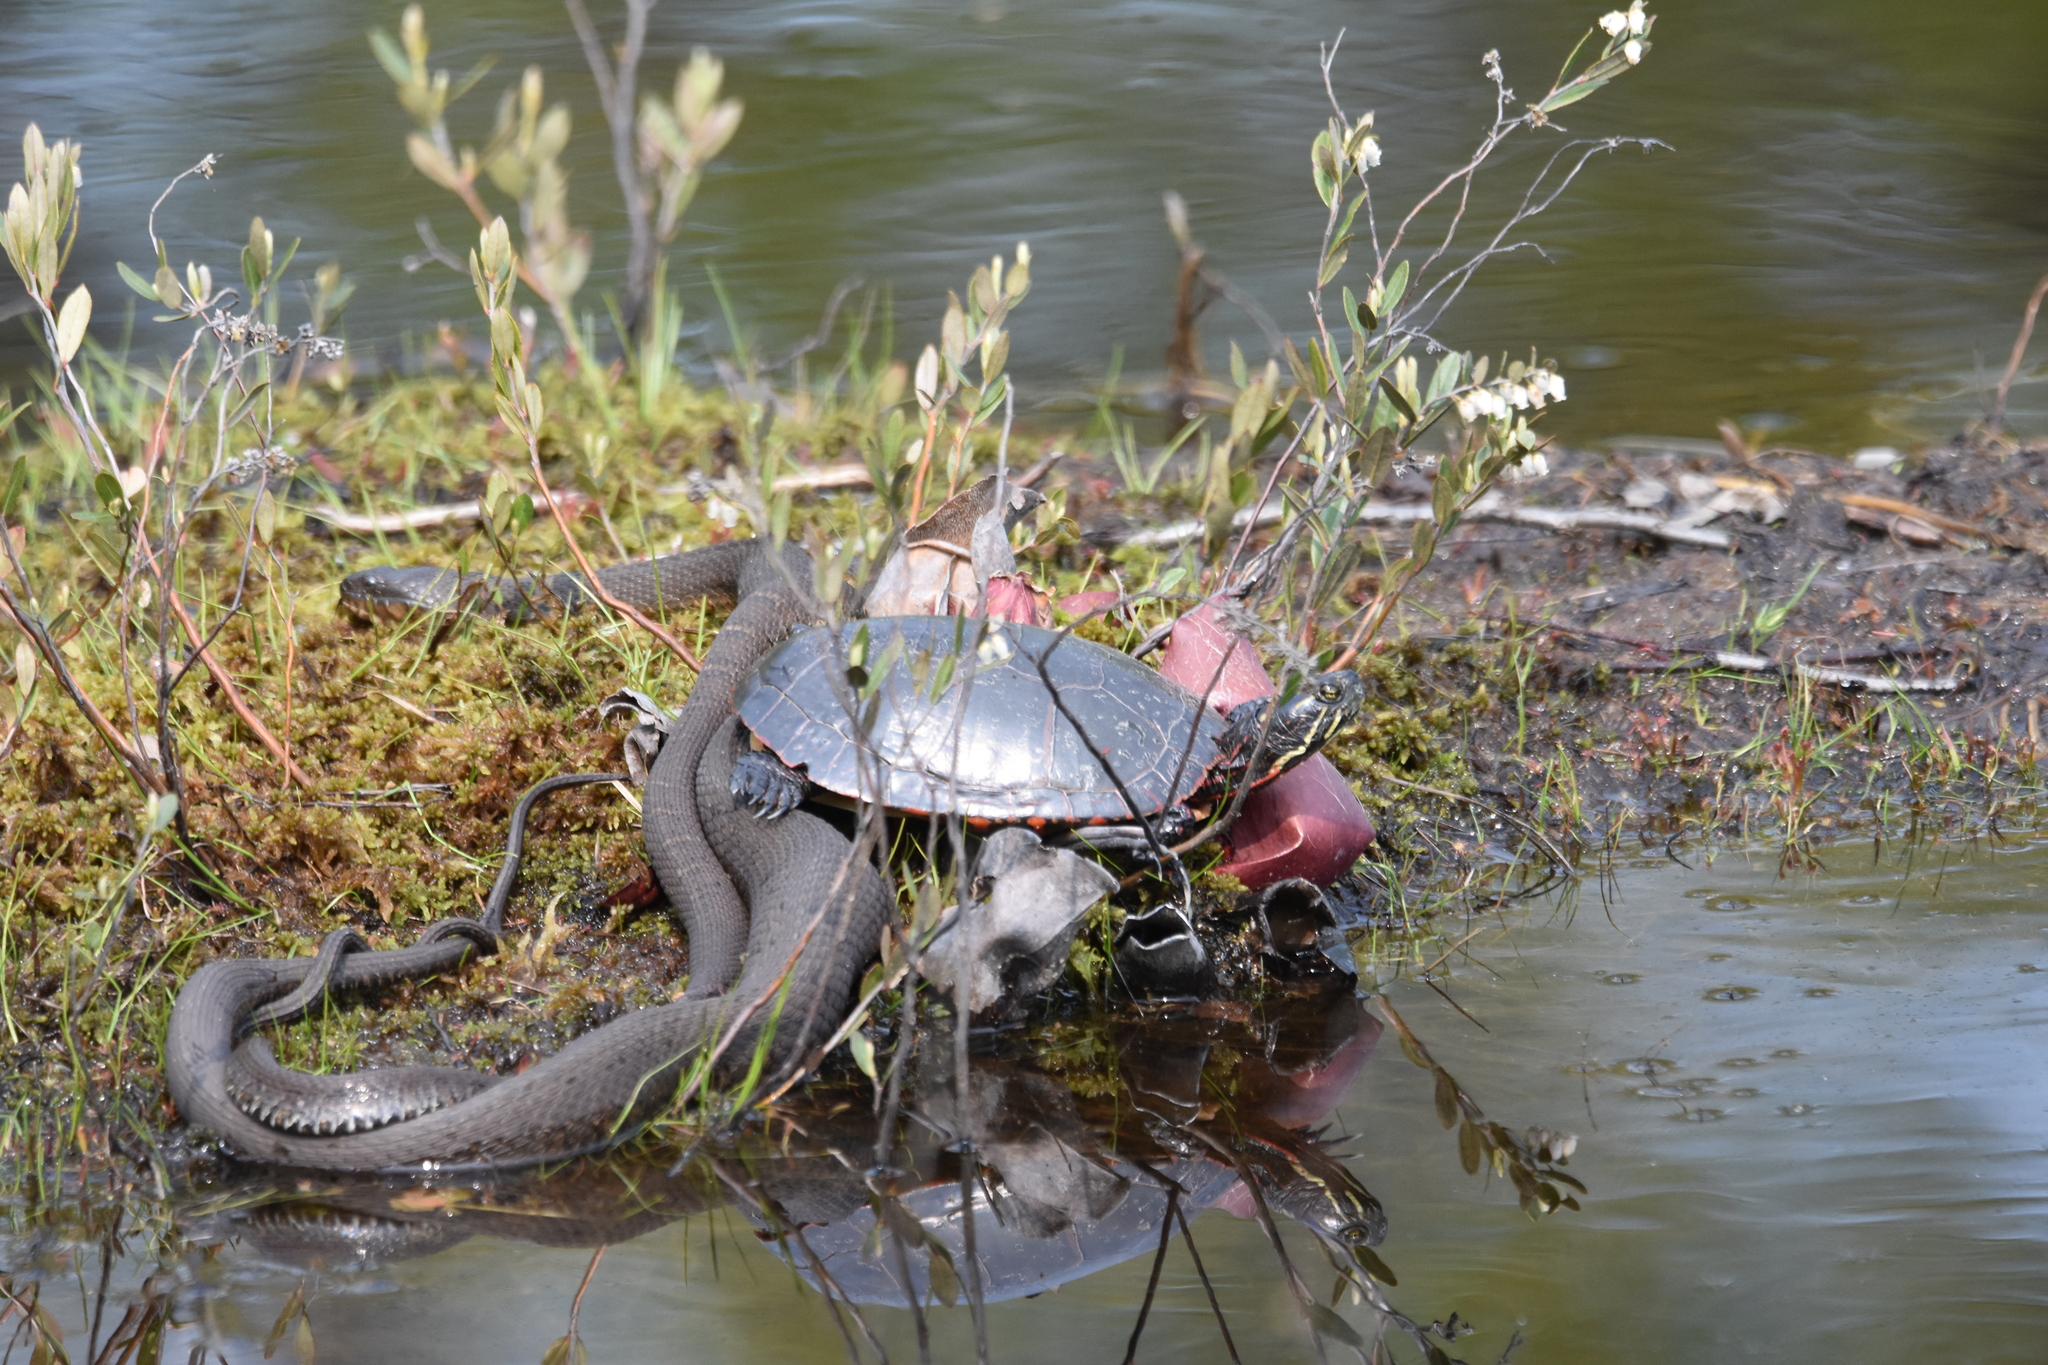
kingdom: Animalia
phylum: Chordata
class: Testudines
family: Emydidae
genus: Chrysemys
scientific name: Chrysemys picta
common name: Painted turtle
